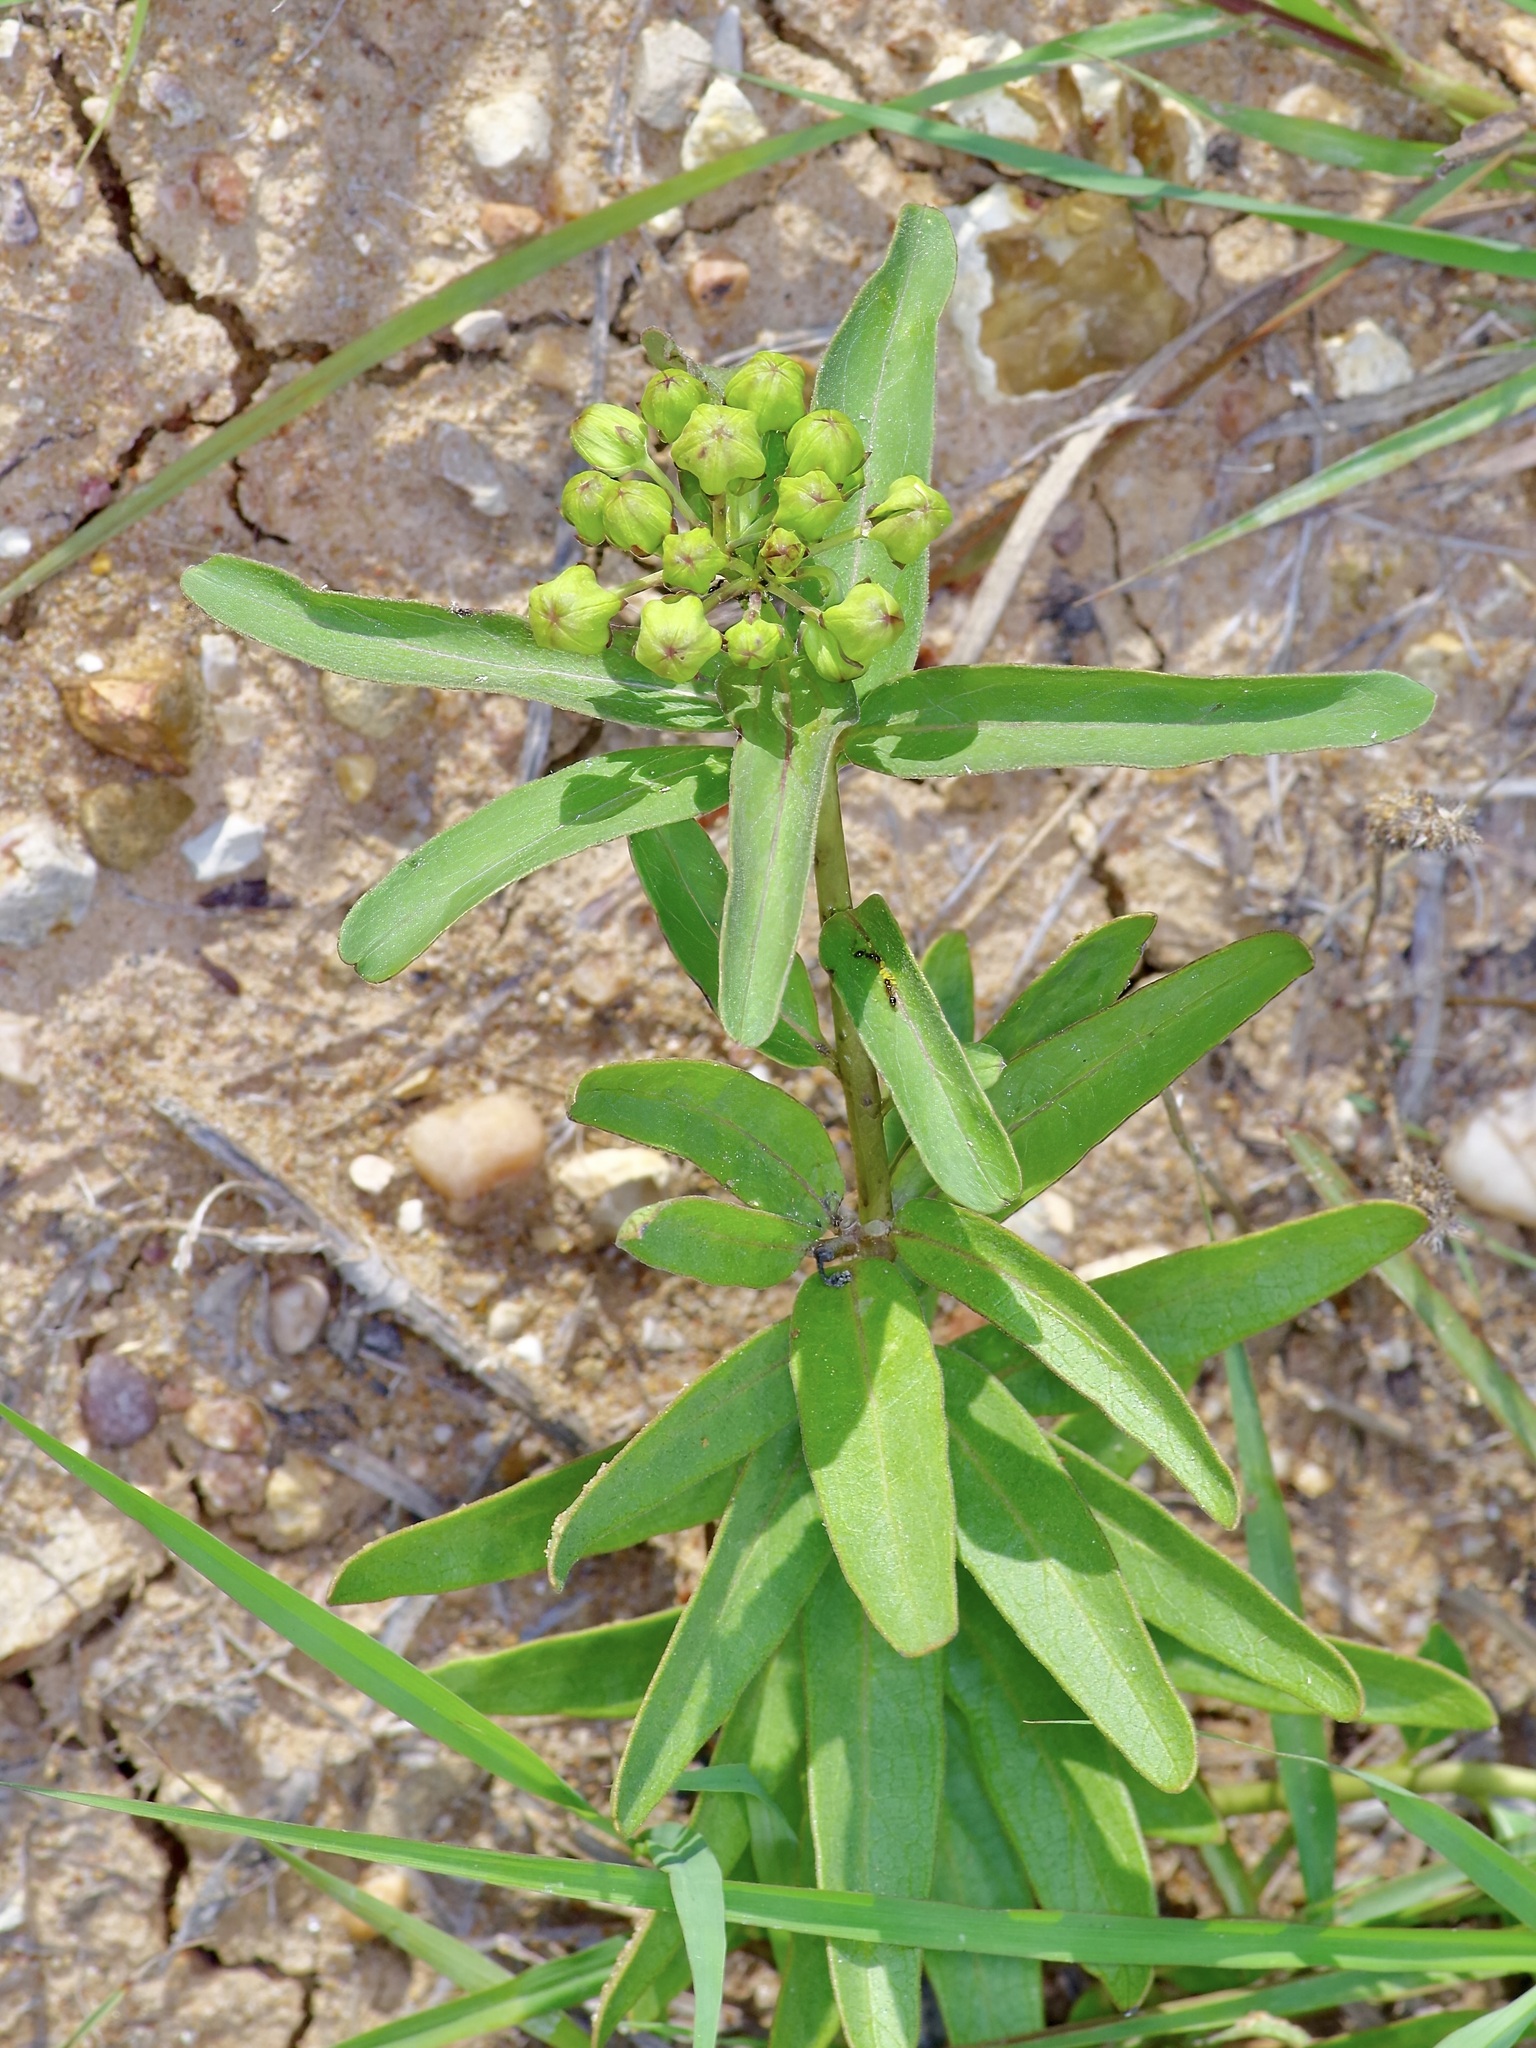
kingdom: Plantae
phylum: Tracheophyta
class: Magnoliopsida
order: Gentianales
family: Apocynaceae
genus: Asclepias
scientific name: Asclepias viridis
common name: Antelope-horns
